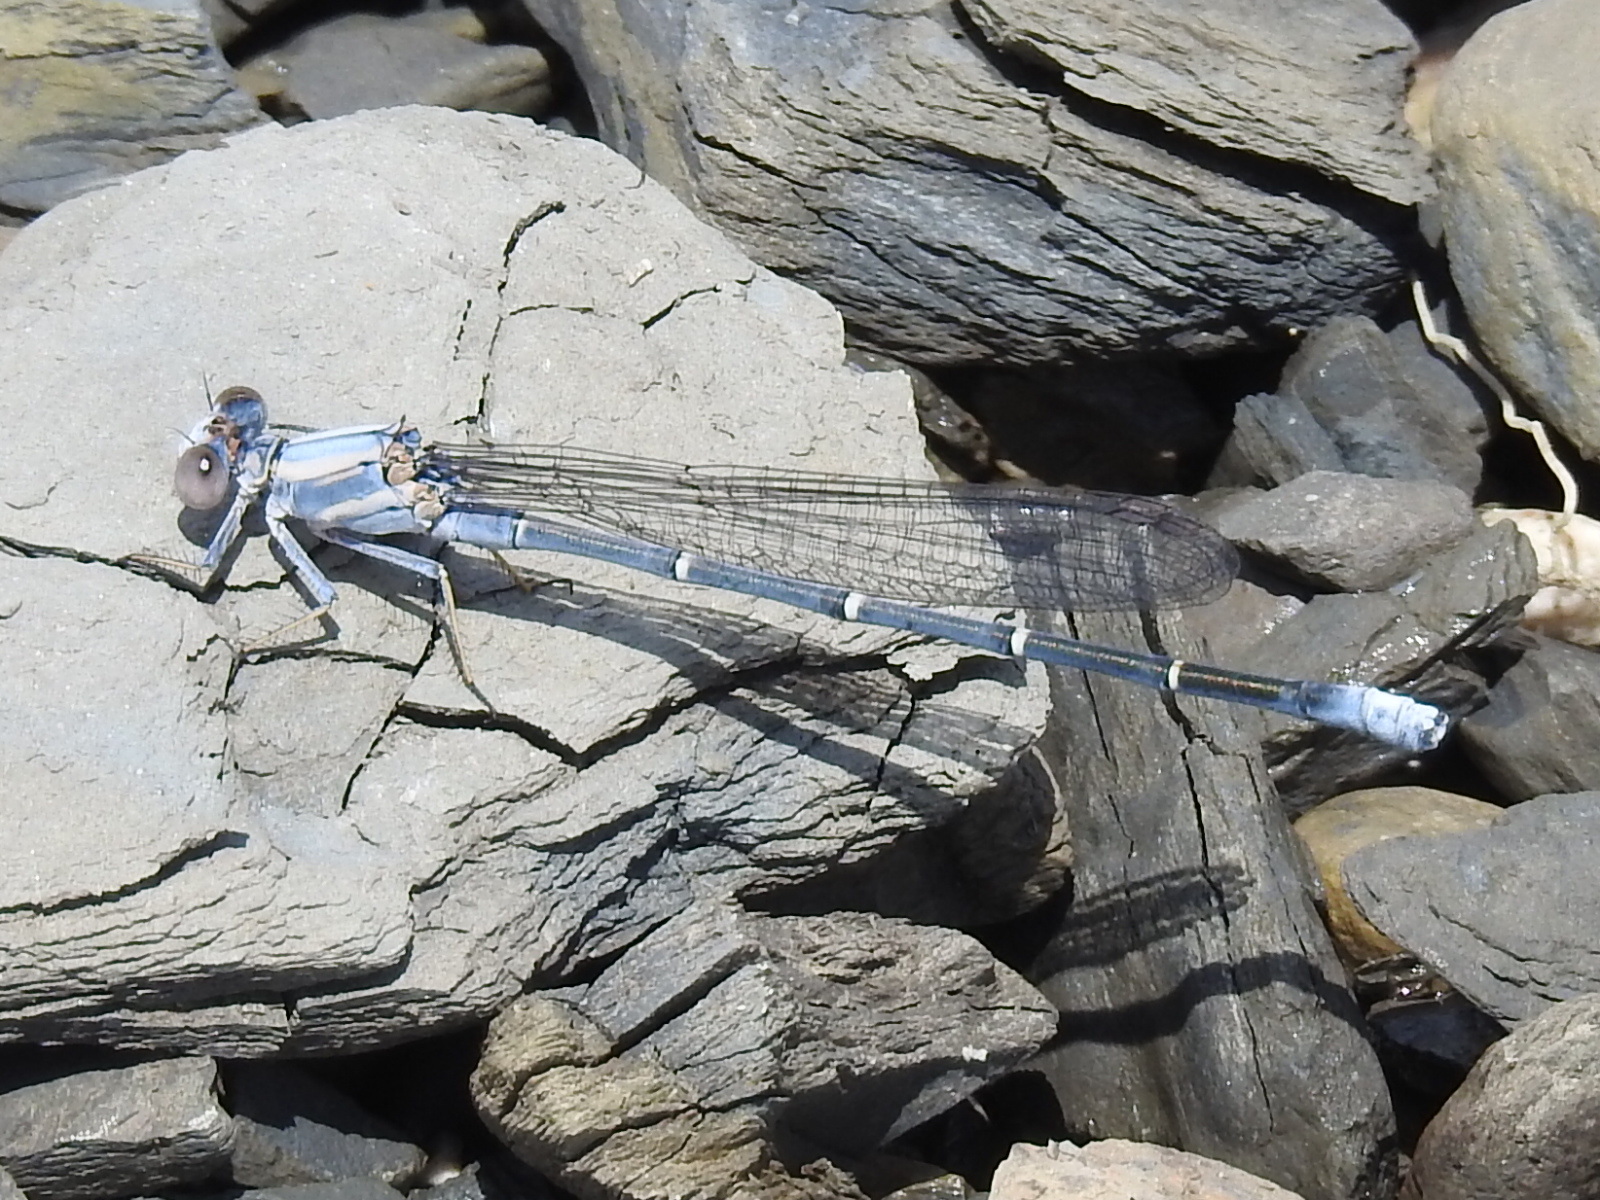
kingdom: Animalia
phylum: Arthropoda
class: Insecta
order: Odonata
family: Coenagrionidae
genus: Argia
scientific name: Argia moesta
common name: Powdered dancer
